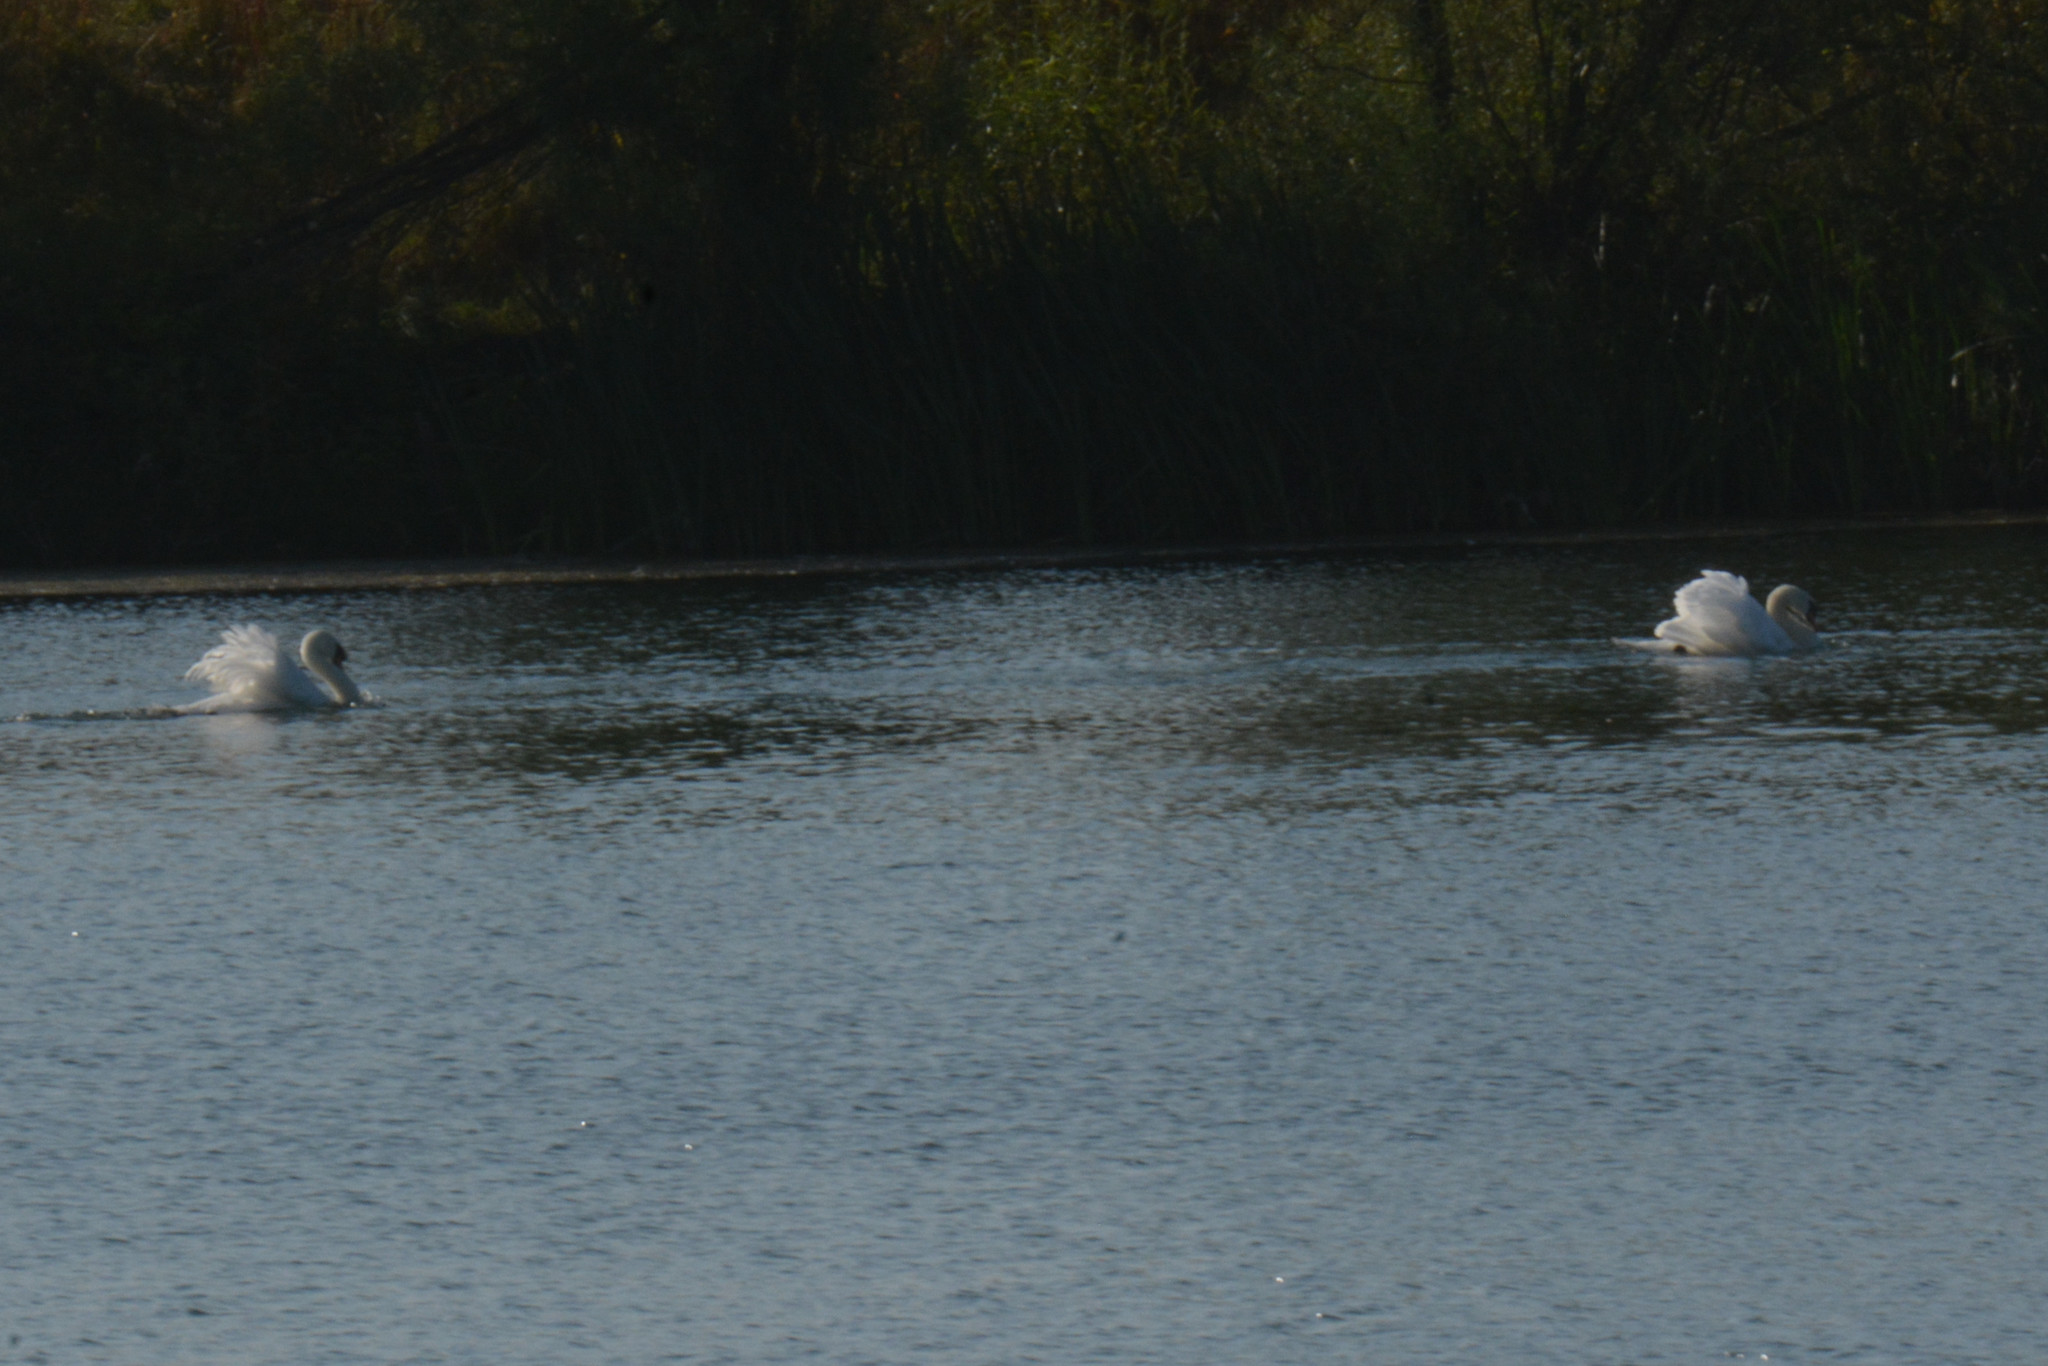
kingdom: Animalia
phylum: Chordata
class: Aves
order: Anseriformes
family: Anatidae
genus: Cygnus
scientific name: Cygnus olor
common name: Mute swan
